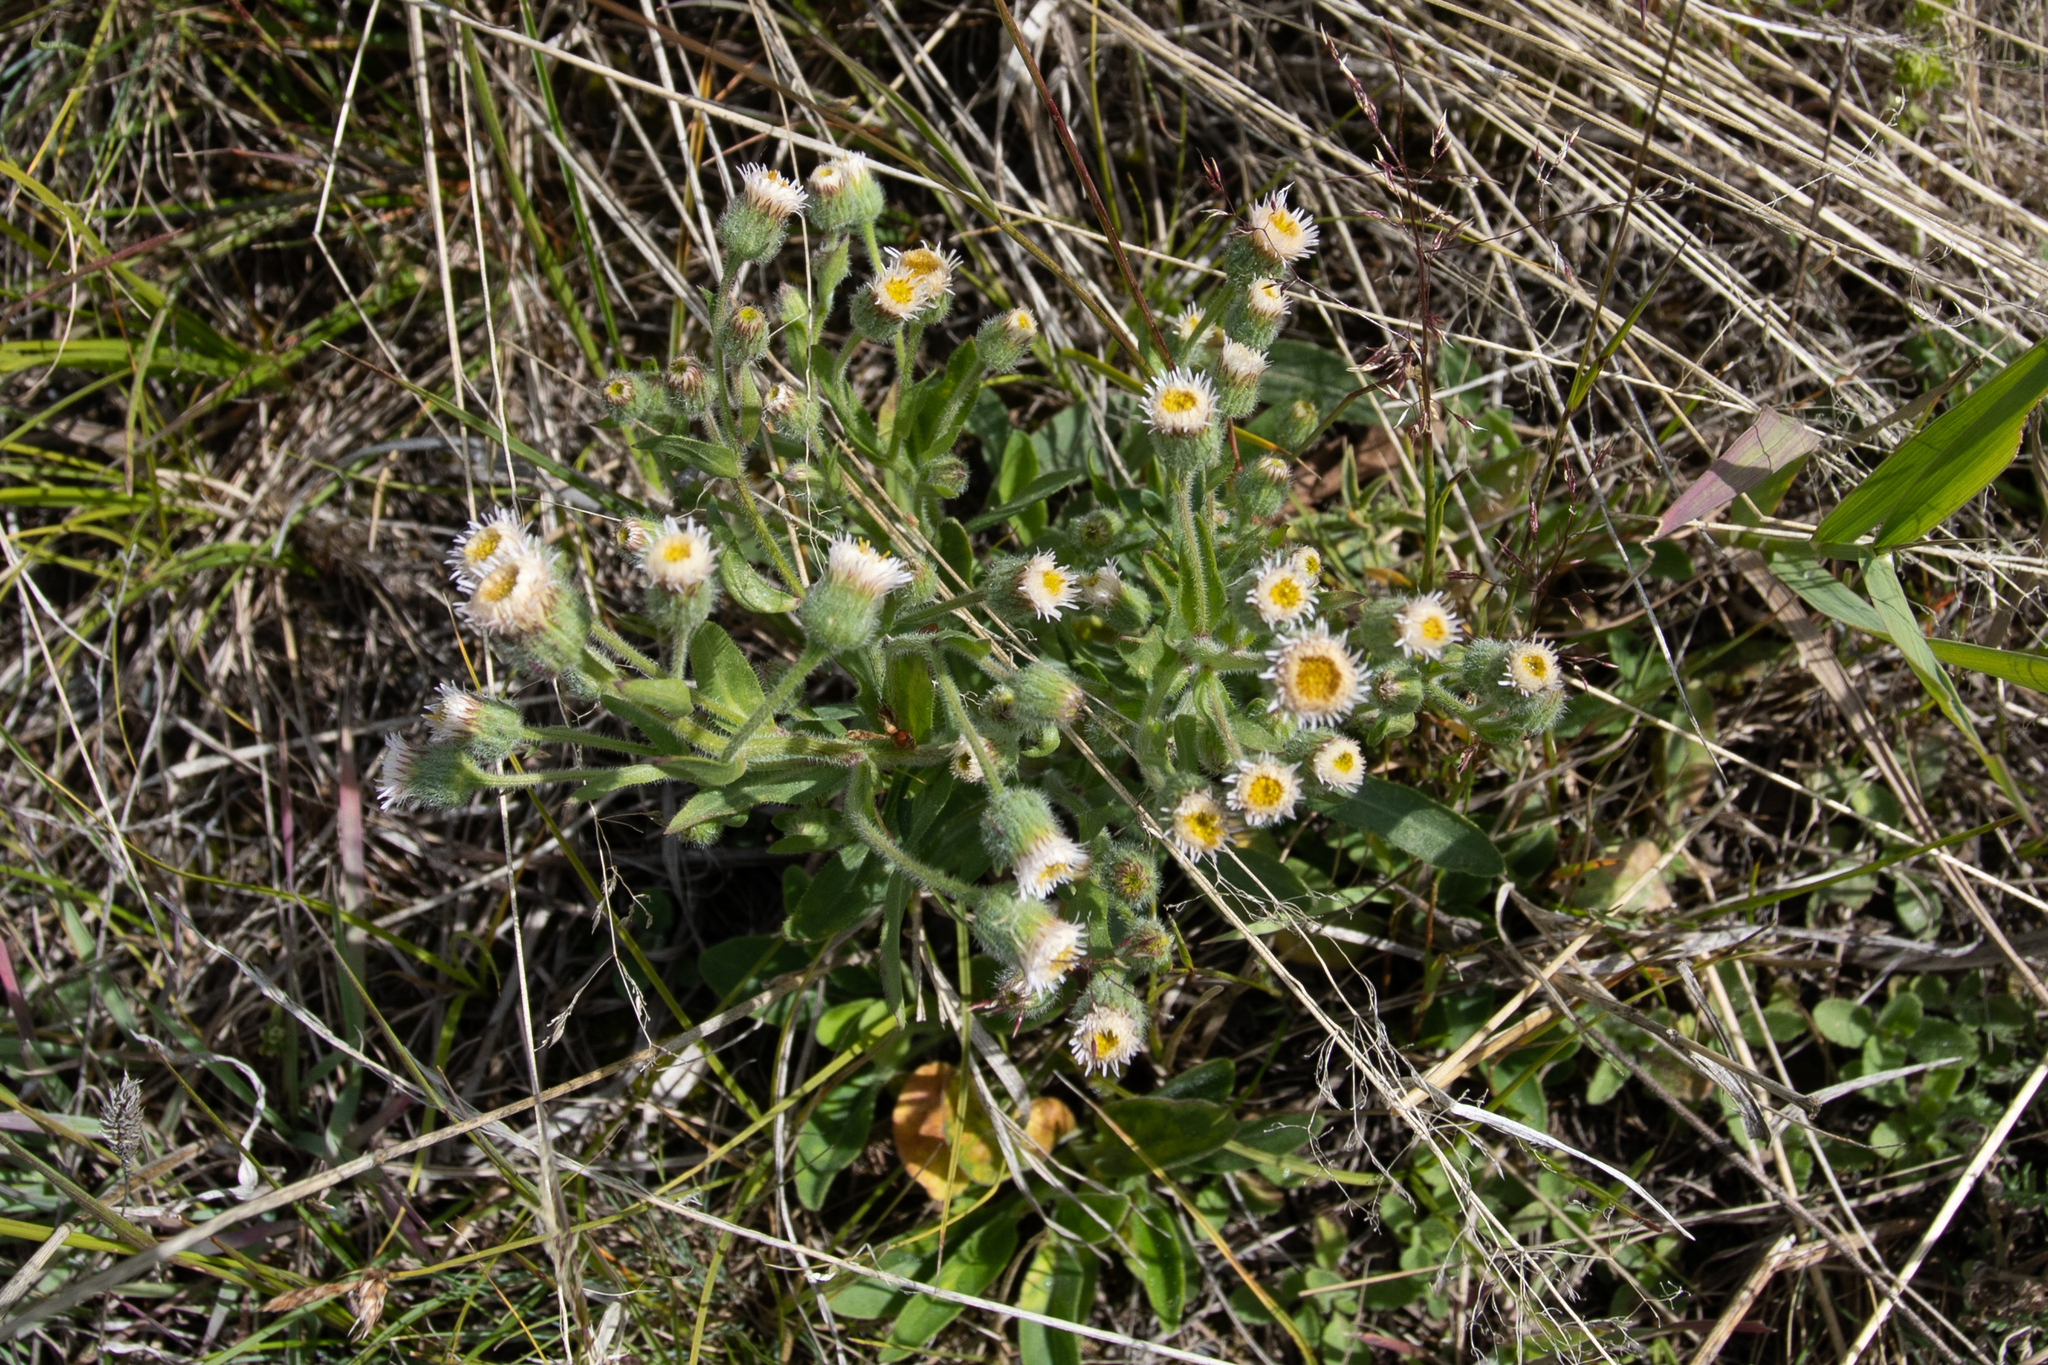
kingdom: Plantae
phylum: Tracheophyta
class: Magnoliopsida
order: Asterales
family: Asteraceae
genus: Erigeron
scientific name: Erigeron acris
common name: Blue fleabane
